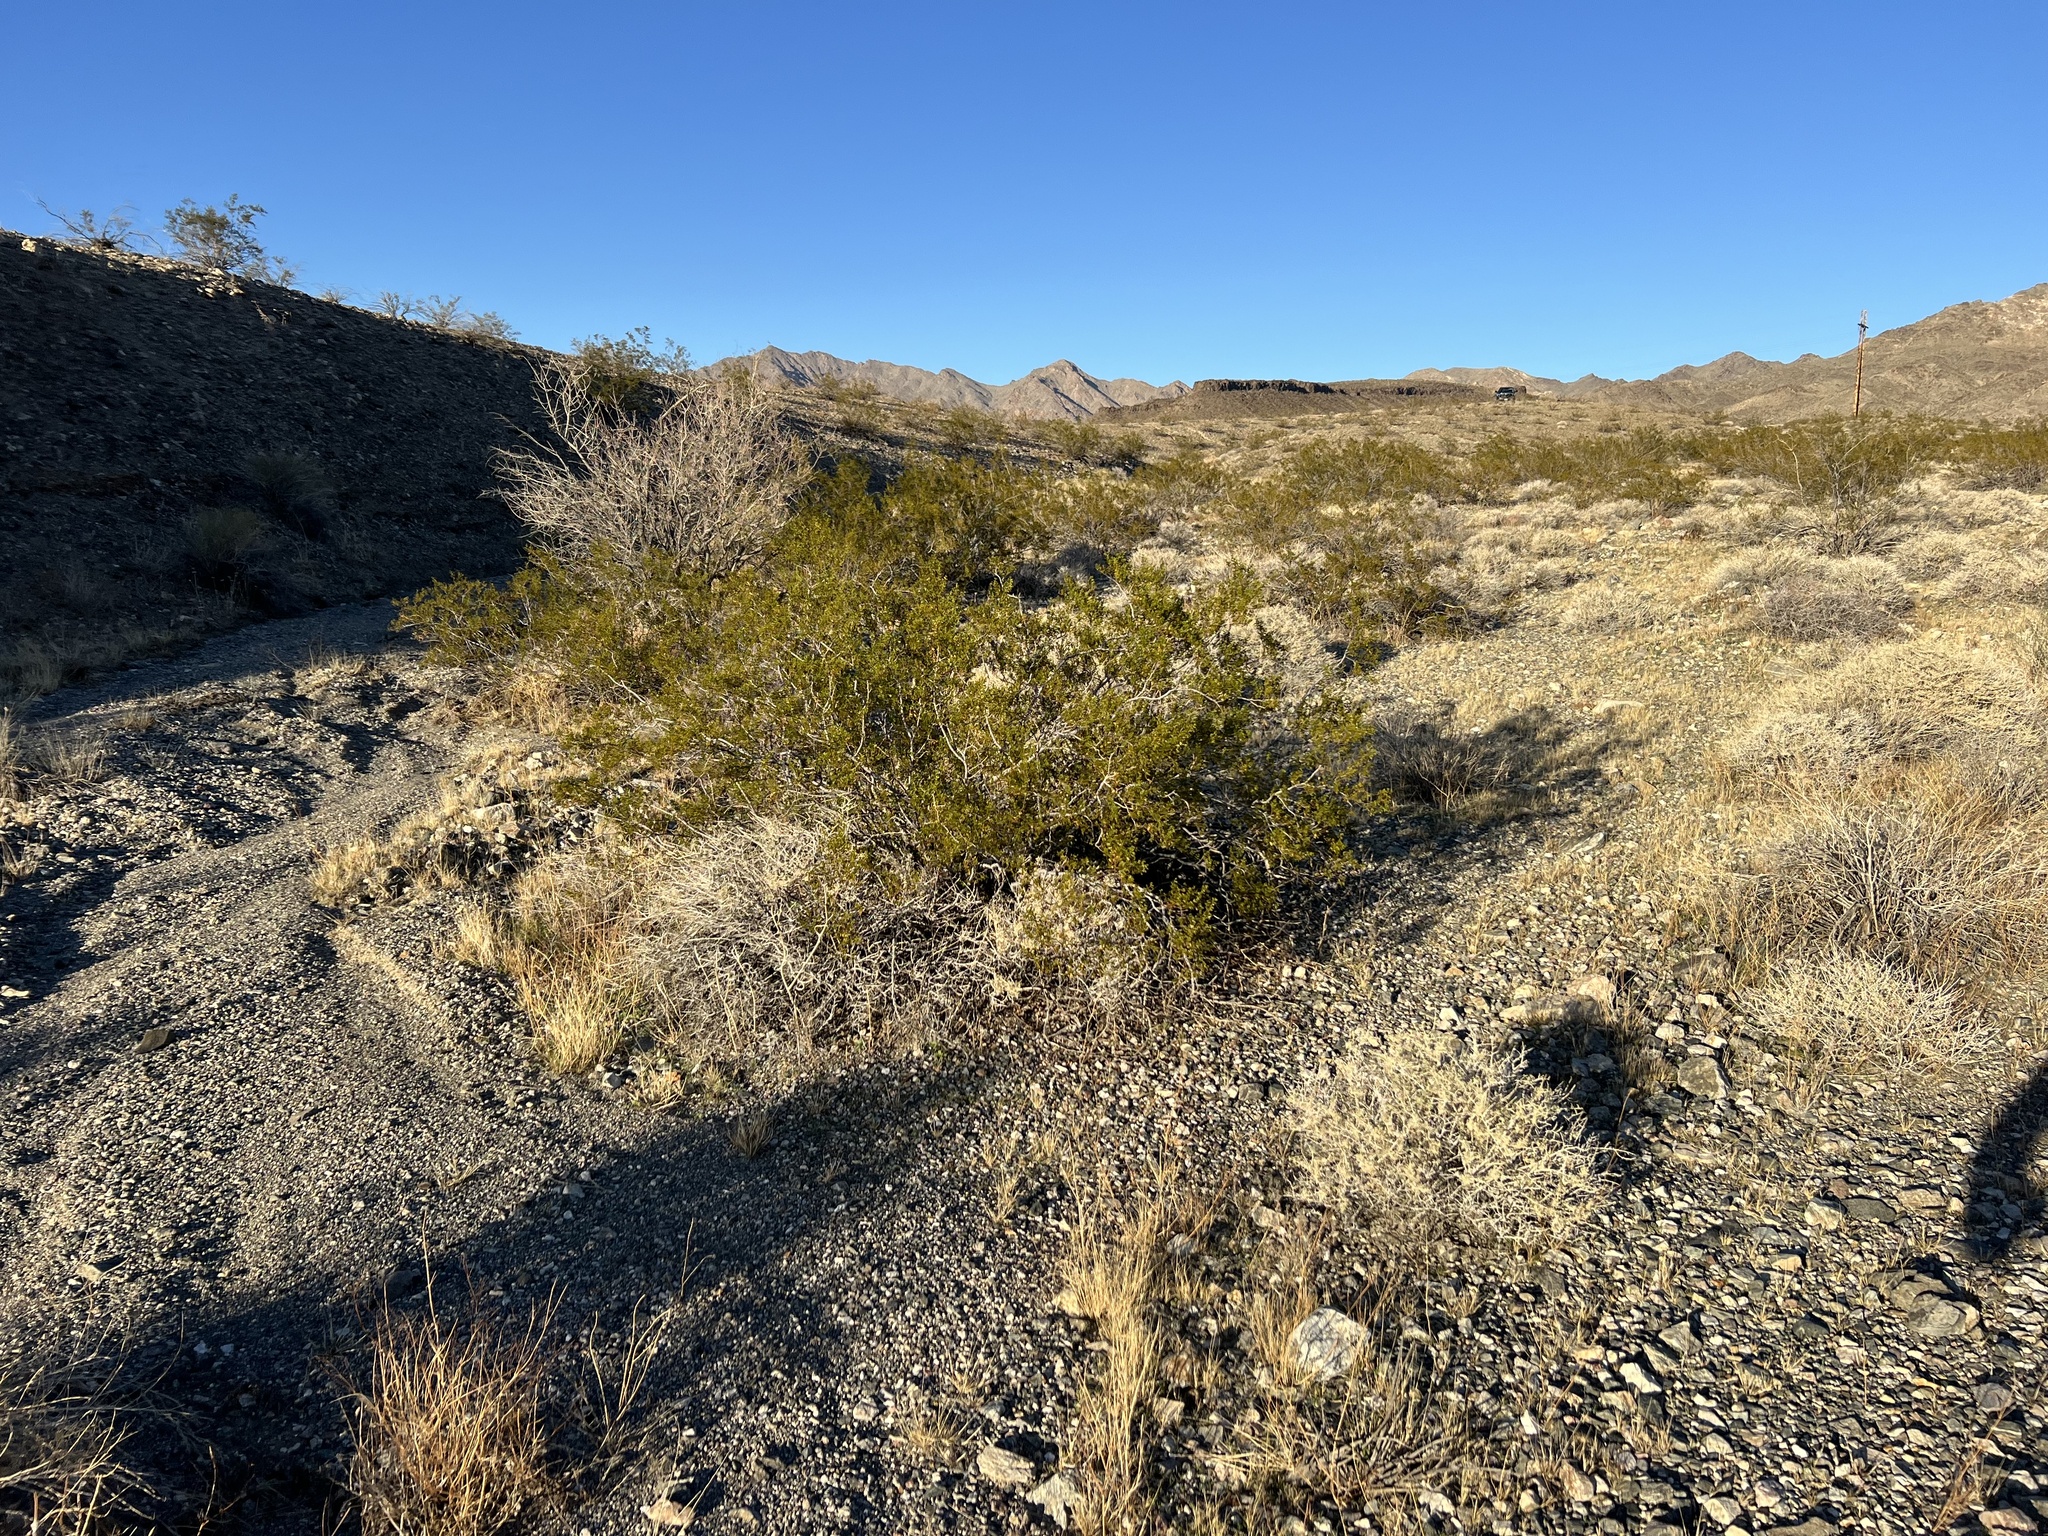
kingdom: Plantae
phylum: Tracheophyta
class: Magnoliopsida
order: Zygophyllales
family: Zygophyllaceae
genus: Larrea
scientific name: Larrea tridentata
